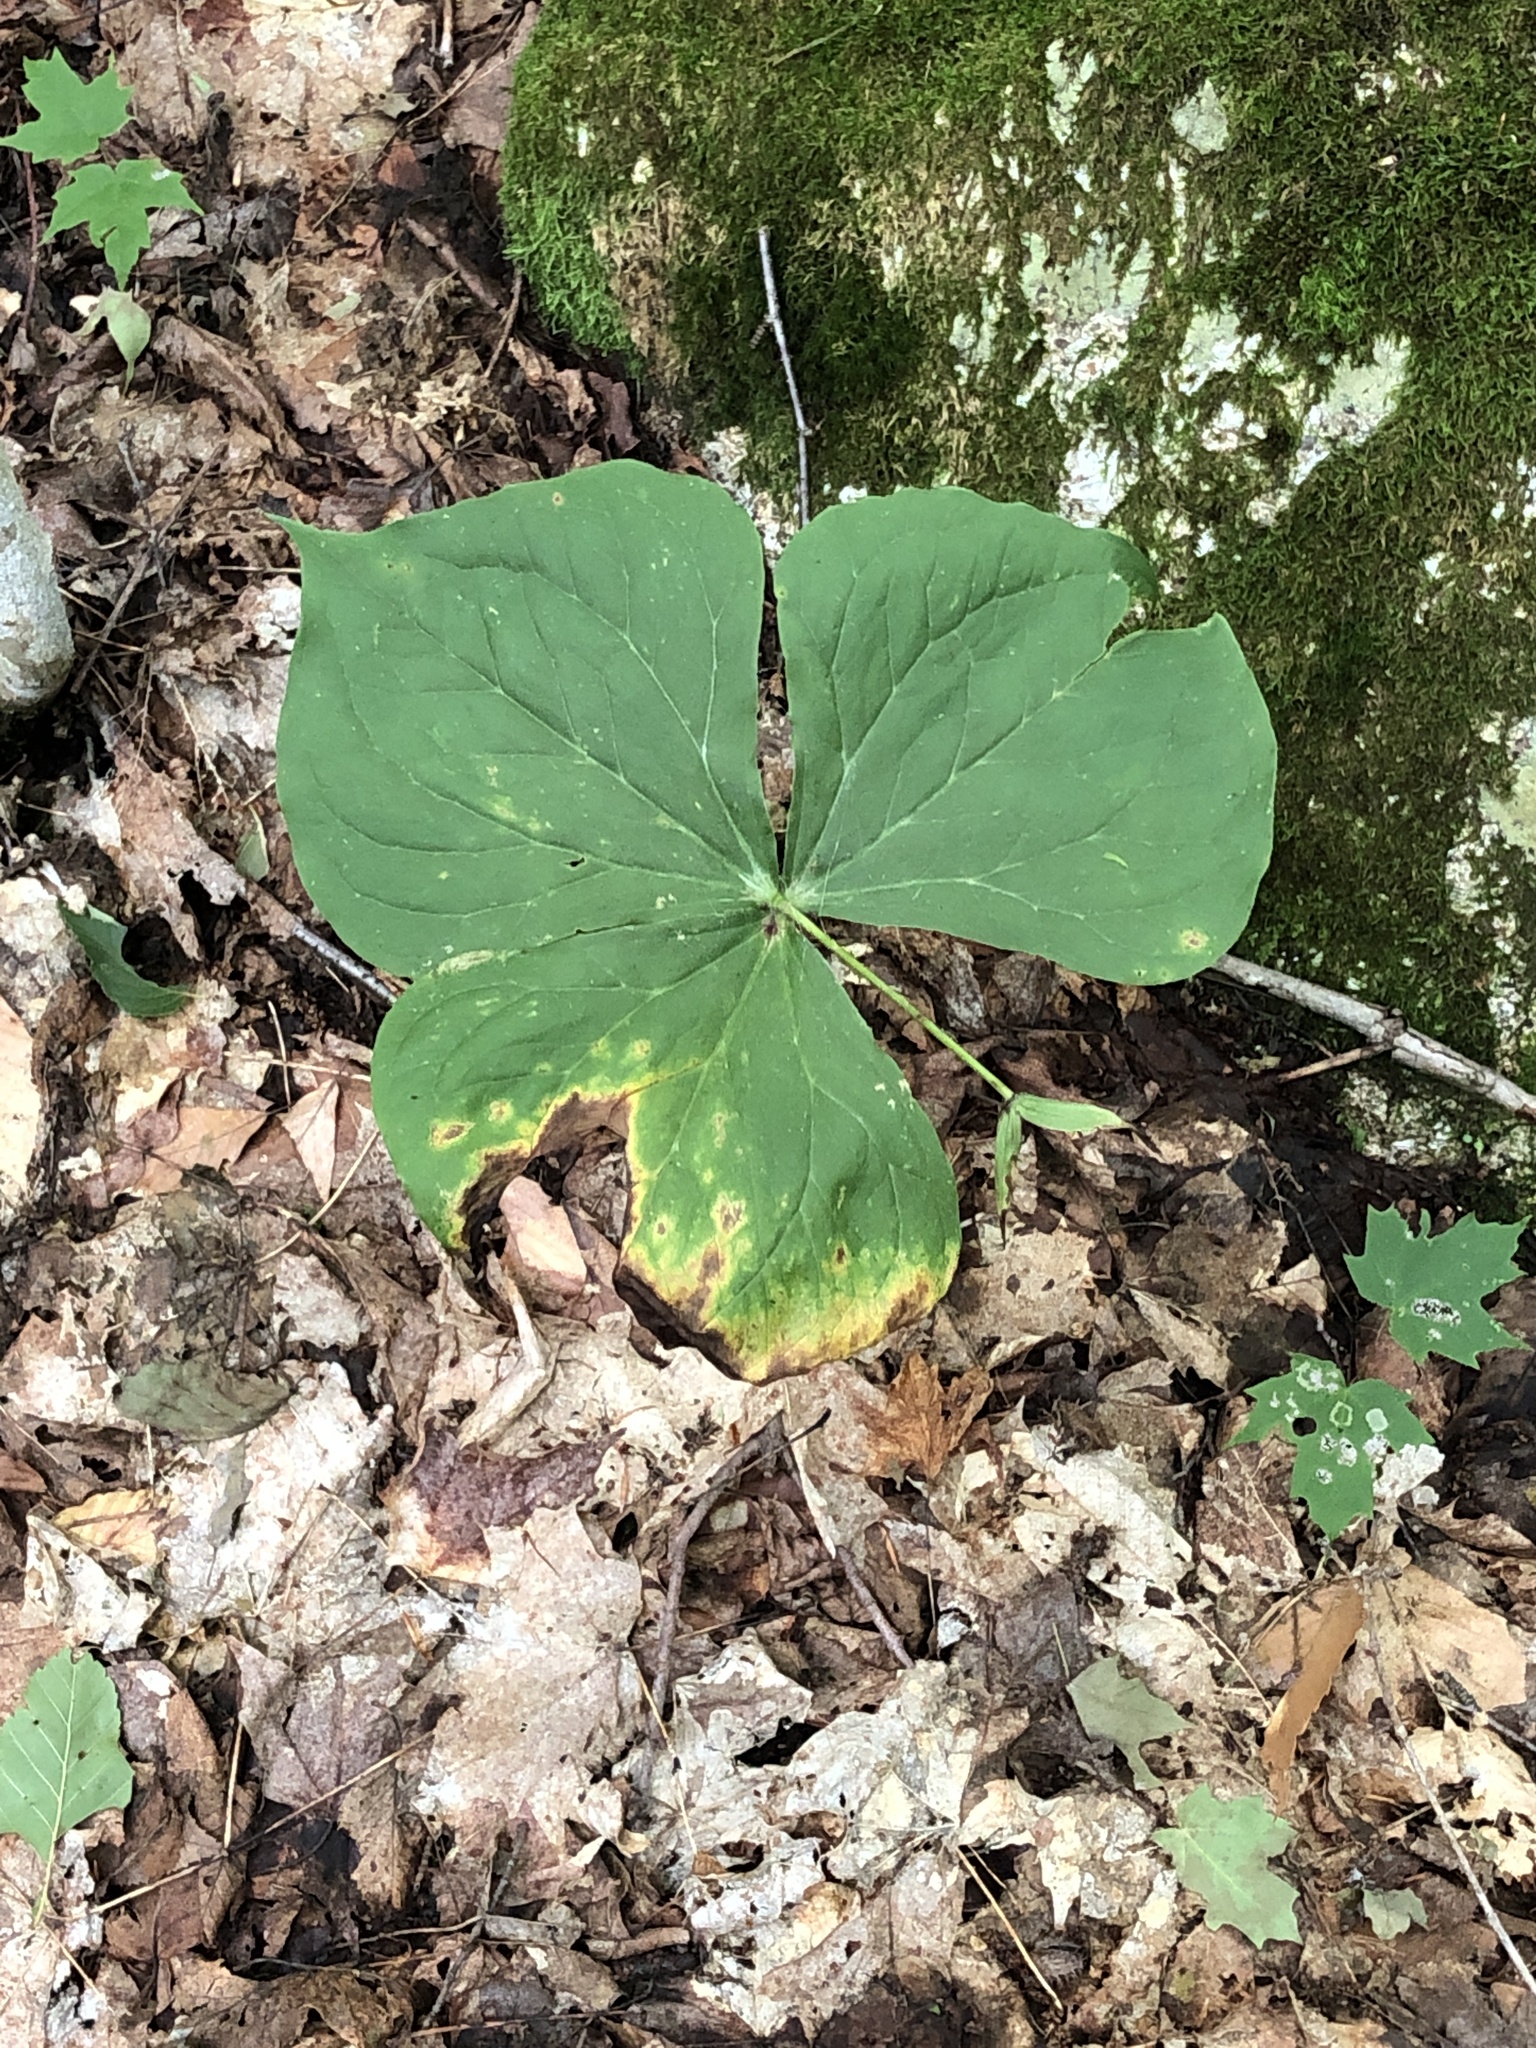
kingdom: Plantae
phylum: Tracheophyta
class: Liliopsida
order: Liliales
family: Melanthiaceae
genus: Trillium
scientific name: Trillium erectum
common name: Purple trillium
